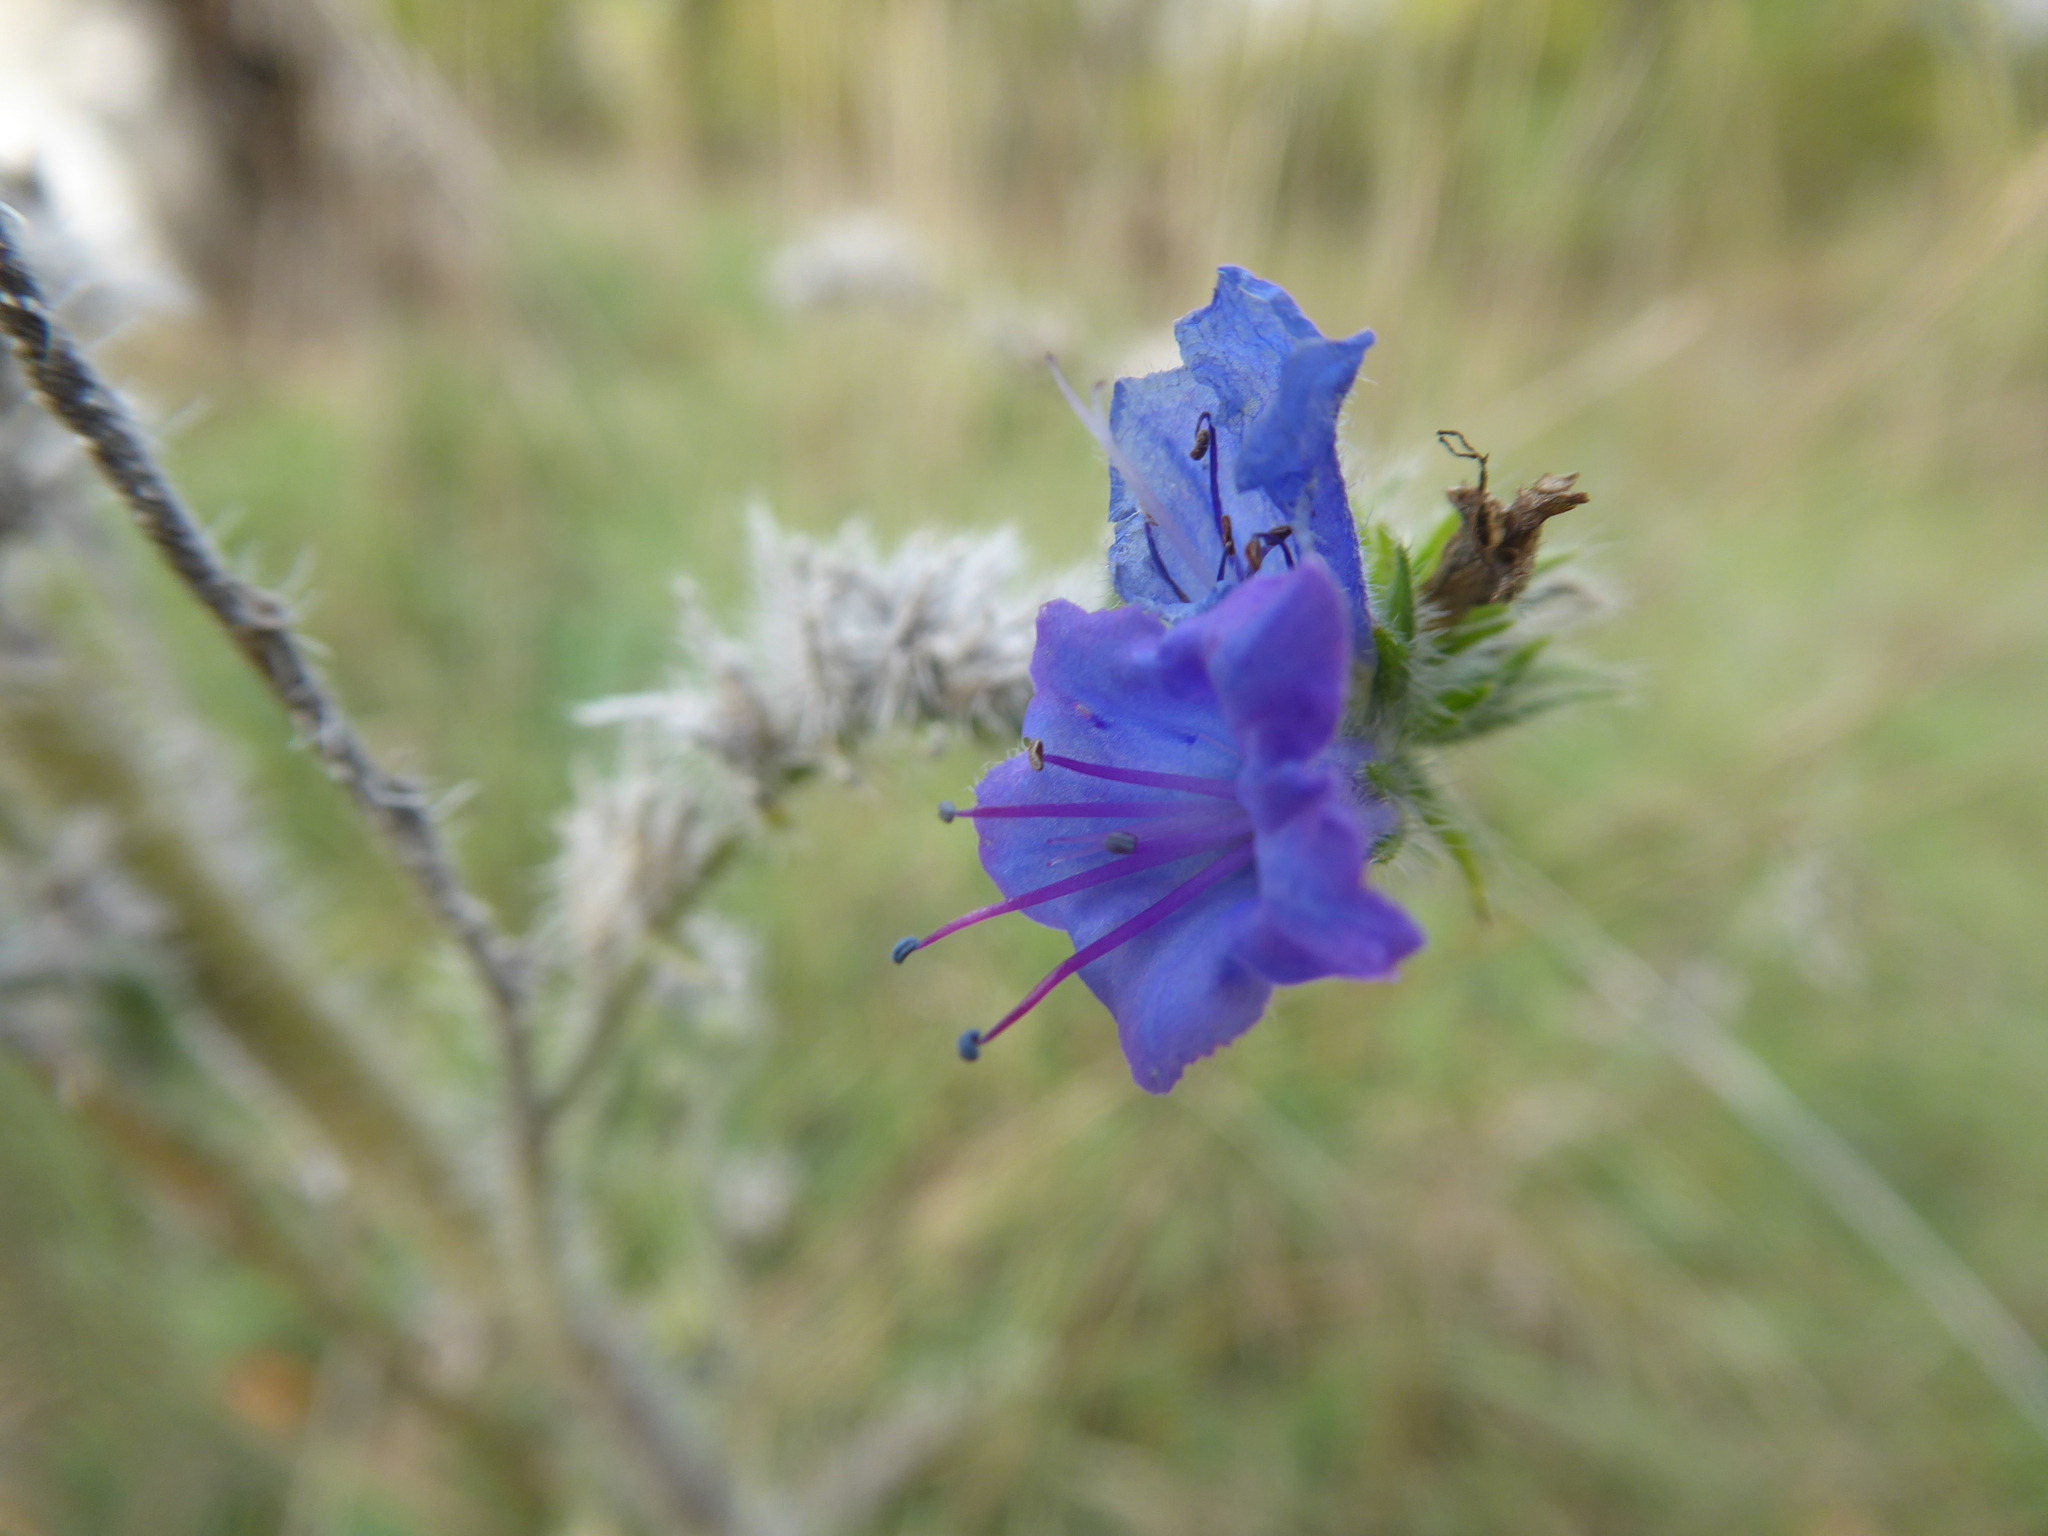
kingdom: Plantae
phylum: Tracheophyta
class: Magnoliopsida
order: Boraginales
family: Boraginaceae
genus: Echium
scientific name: Echium vulgare
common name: Common viper's bugloss
